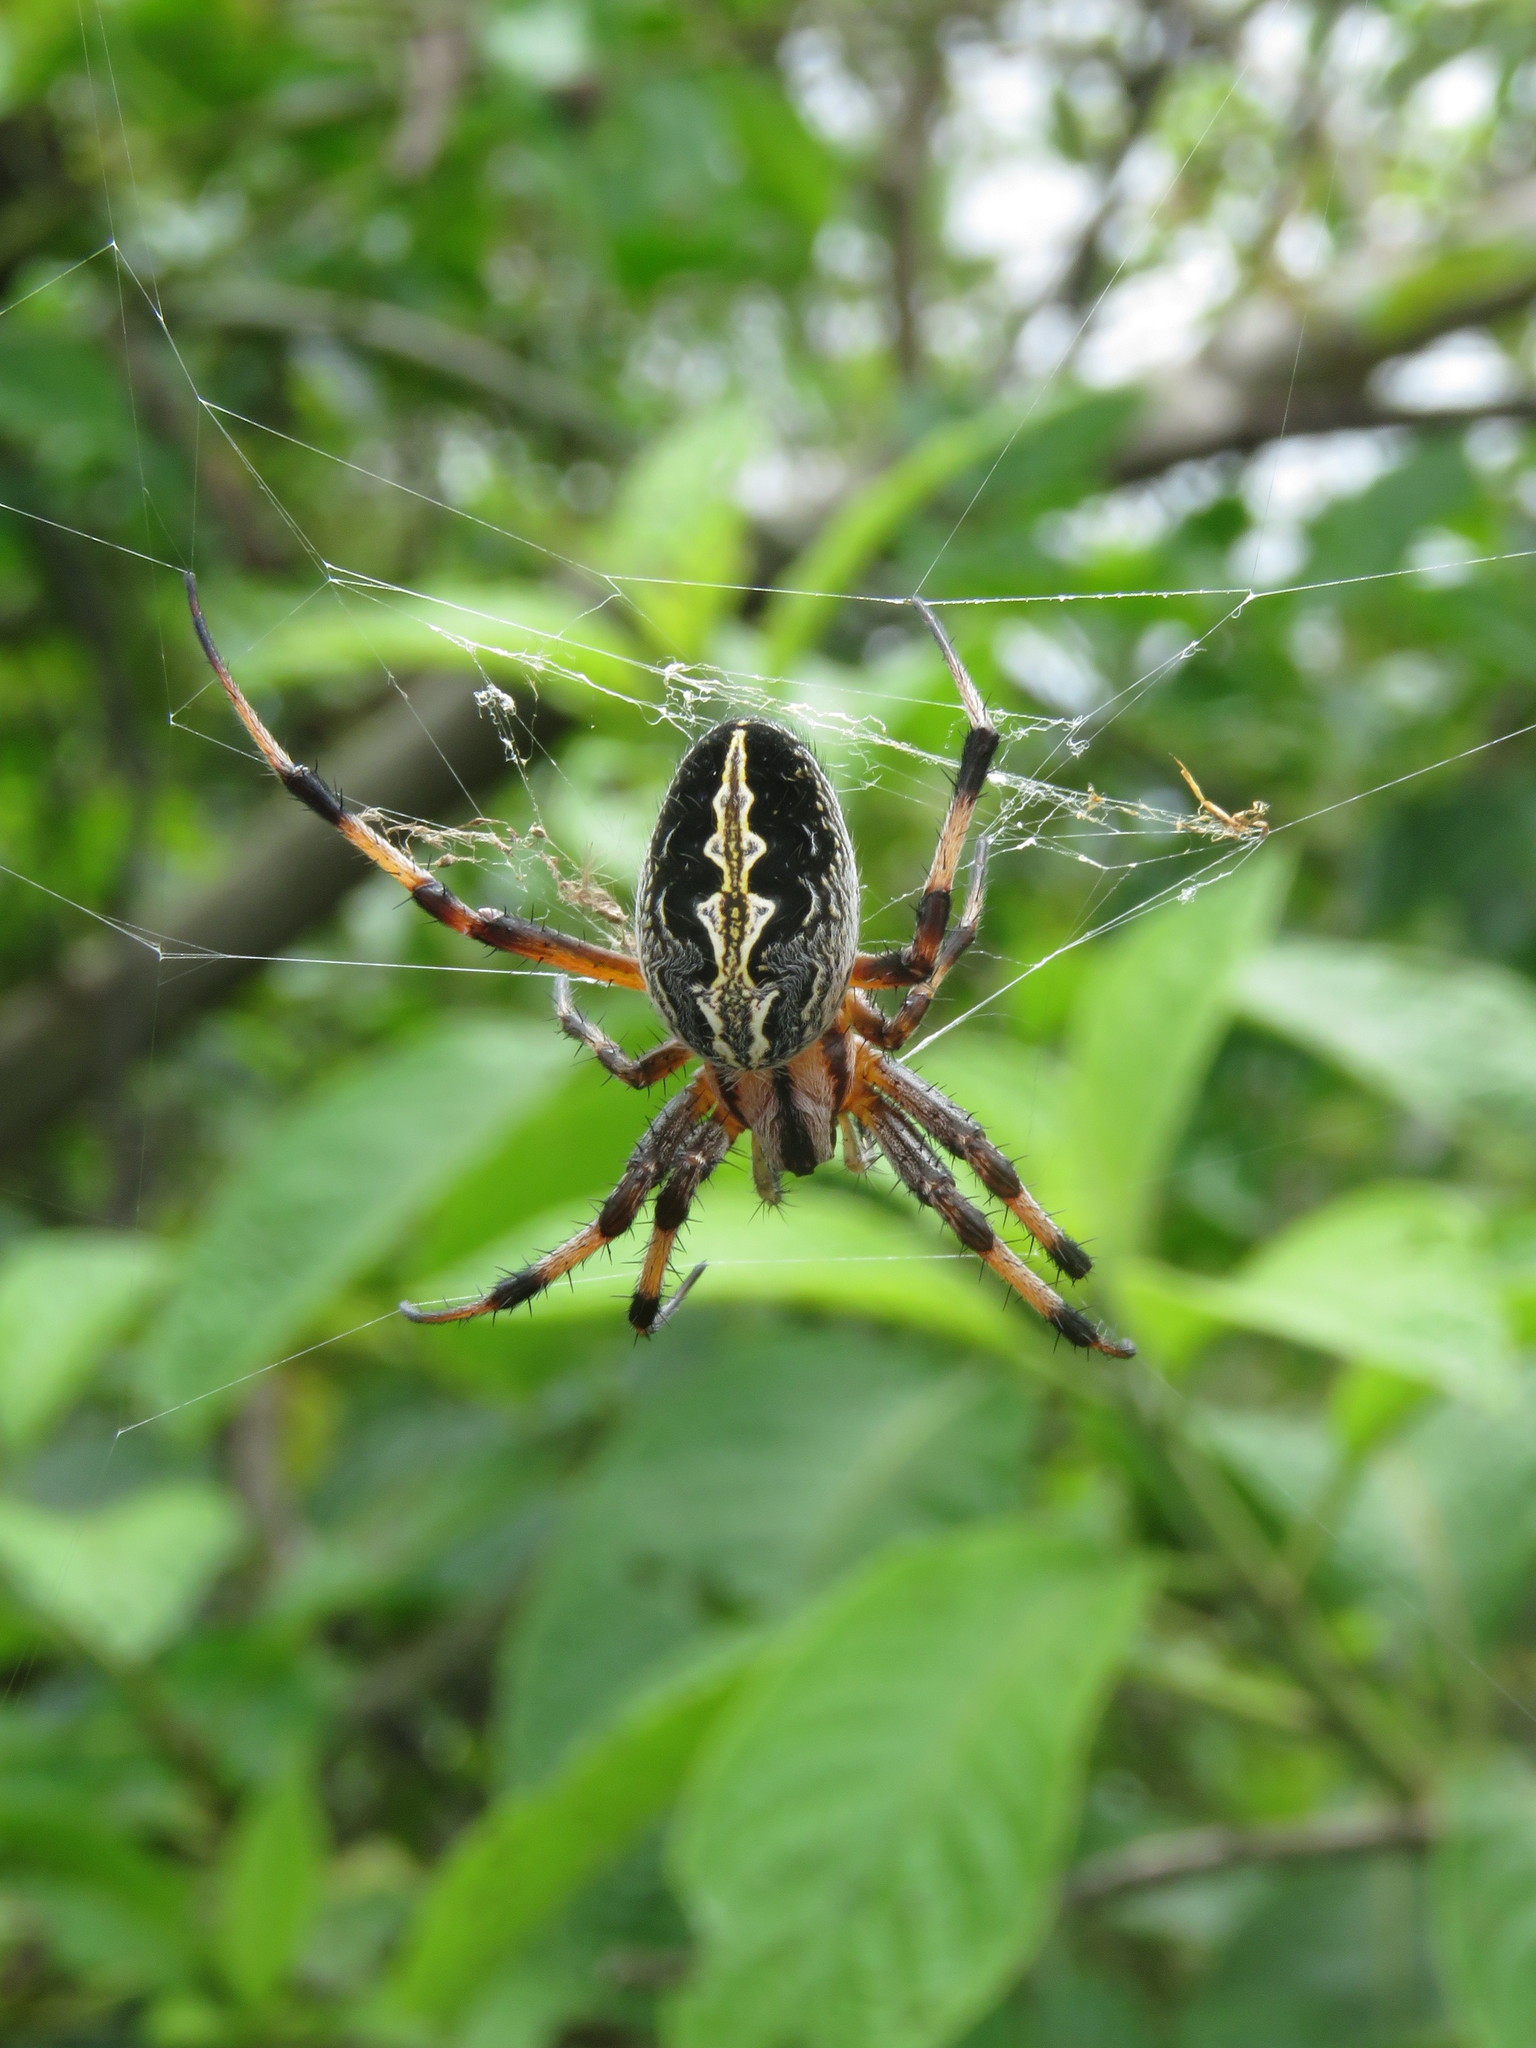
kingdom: Animalia
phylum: Arthropoda
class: Arachnida
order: Araneae
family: Araneidae
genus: Neoscona
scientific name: Neoscona oaxacensis
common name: Orb weavers
